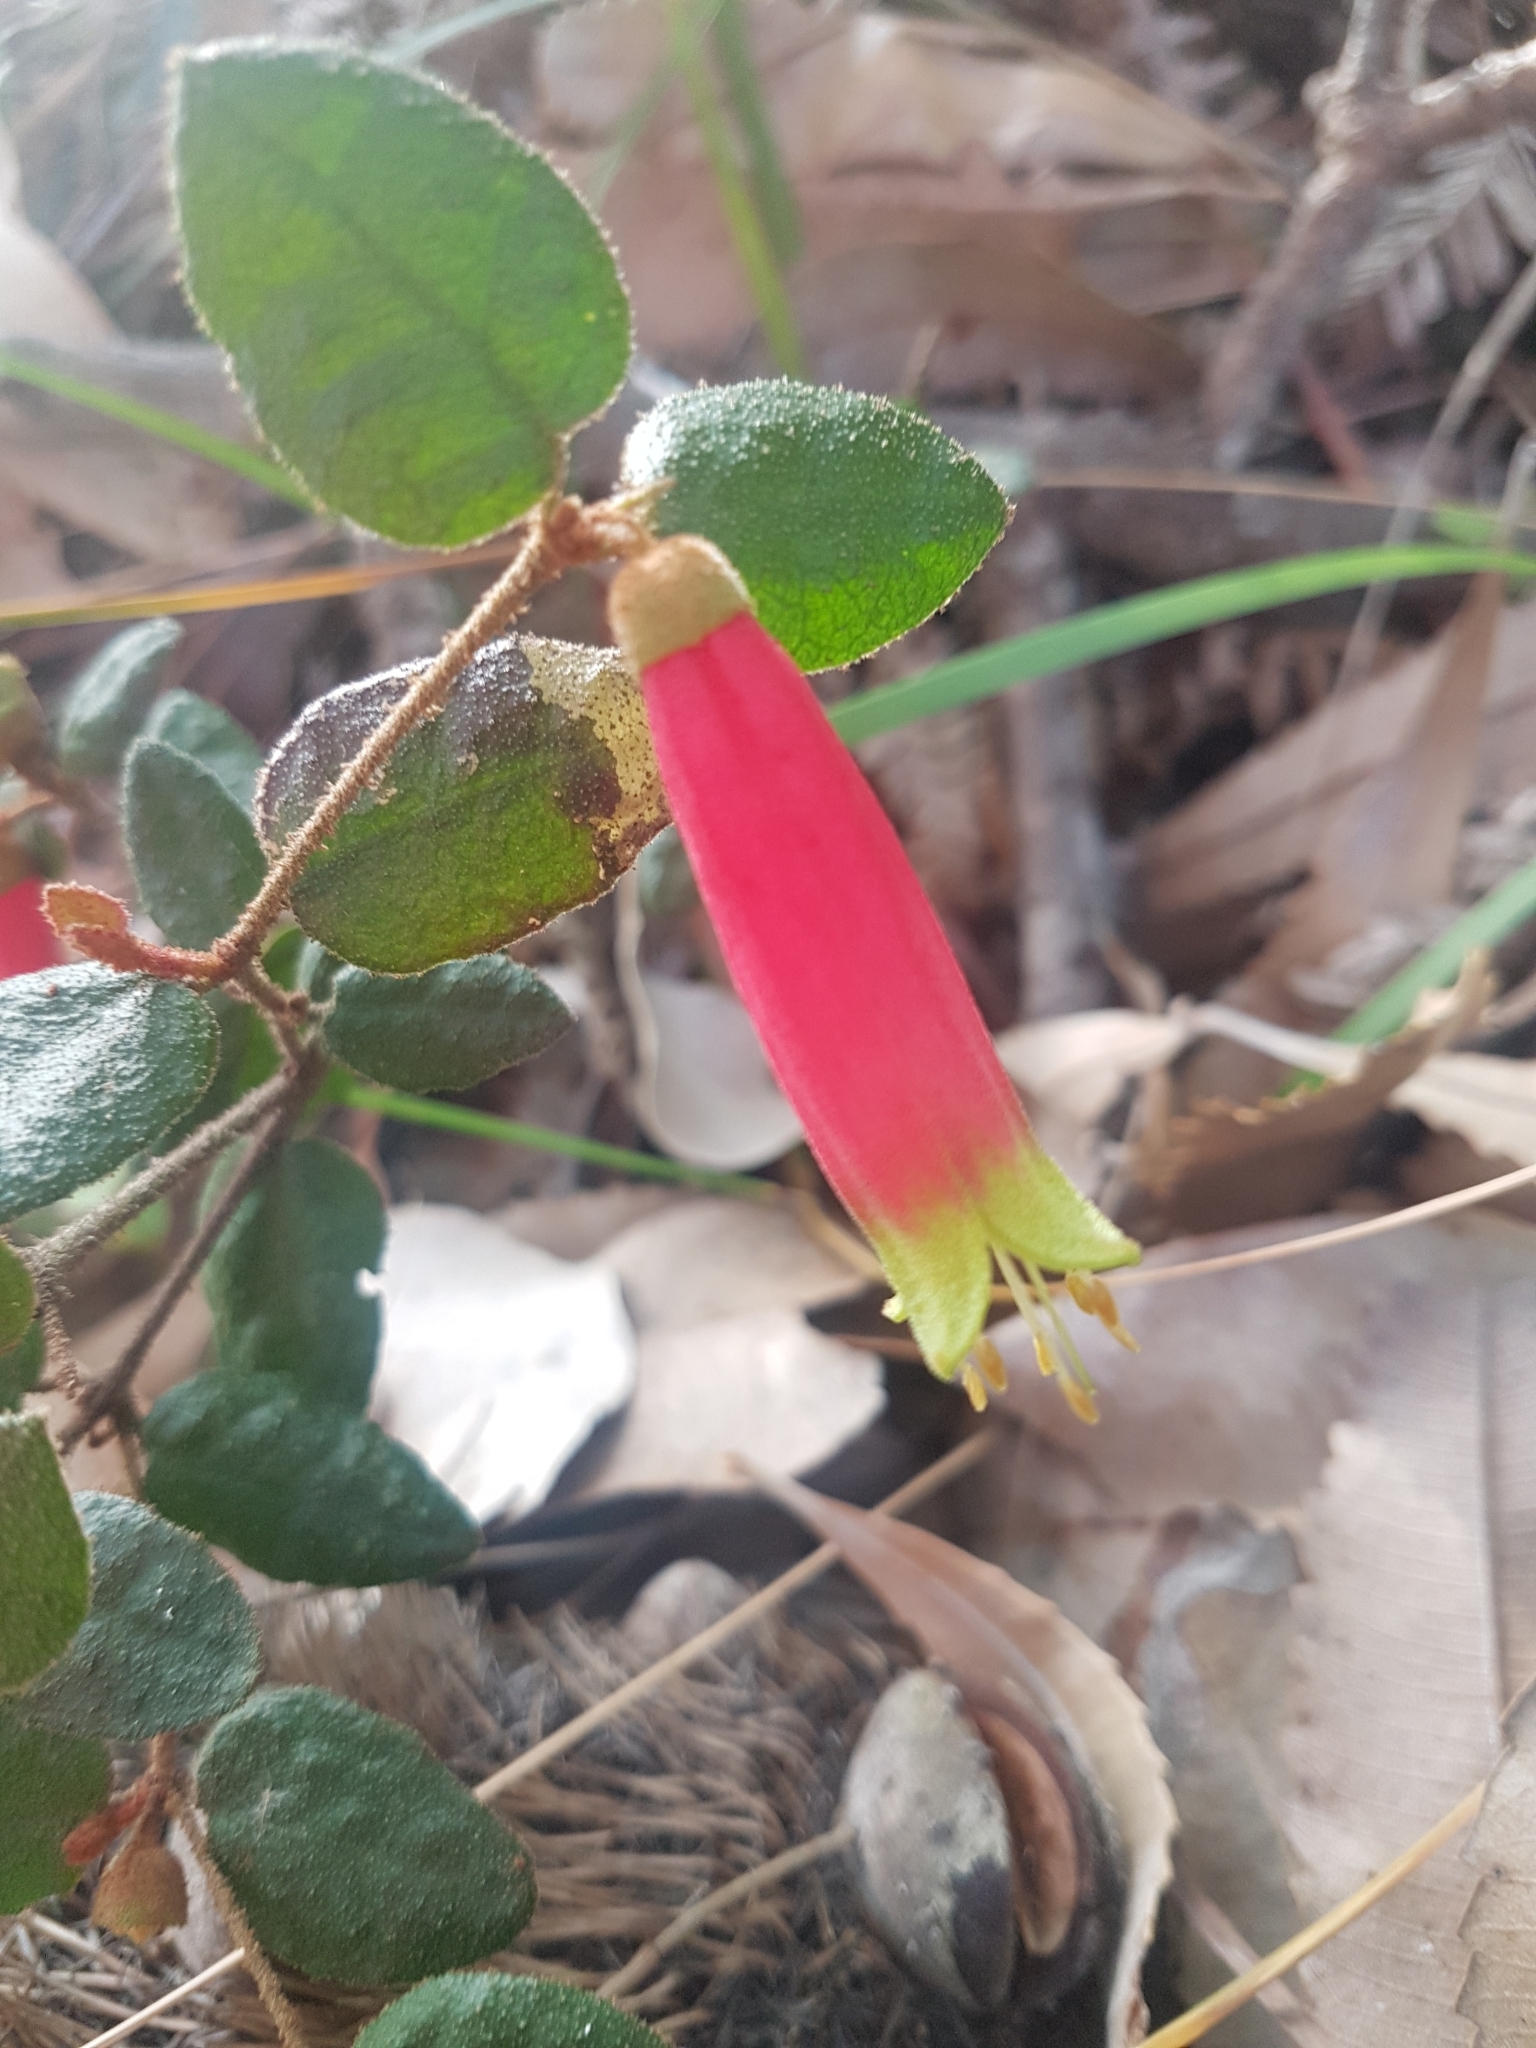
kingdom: Plantae
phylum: Tracheophyta
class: Magnoliopsida
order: Sapindales
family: Rutaceae
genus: Correa
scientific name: Correa reflexa
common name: Common correa
